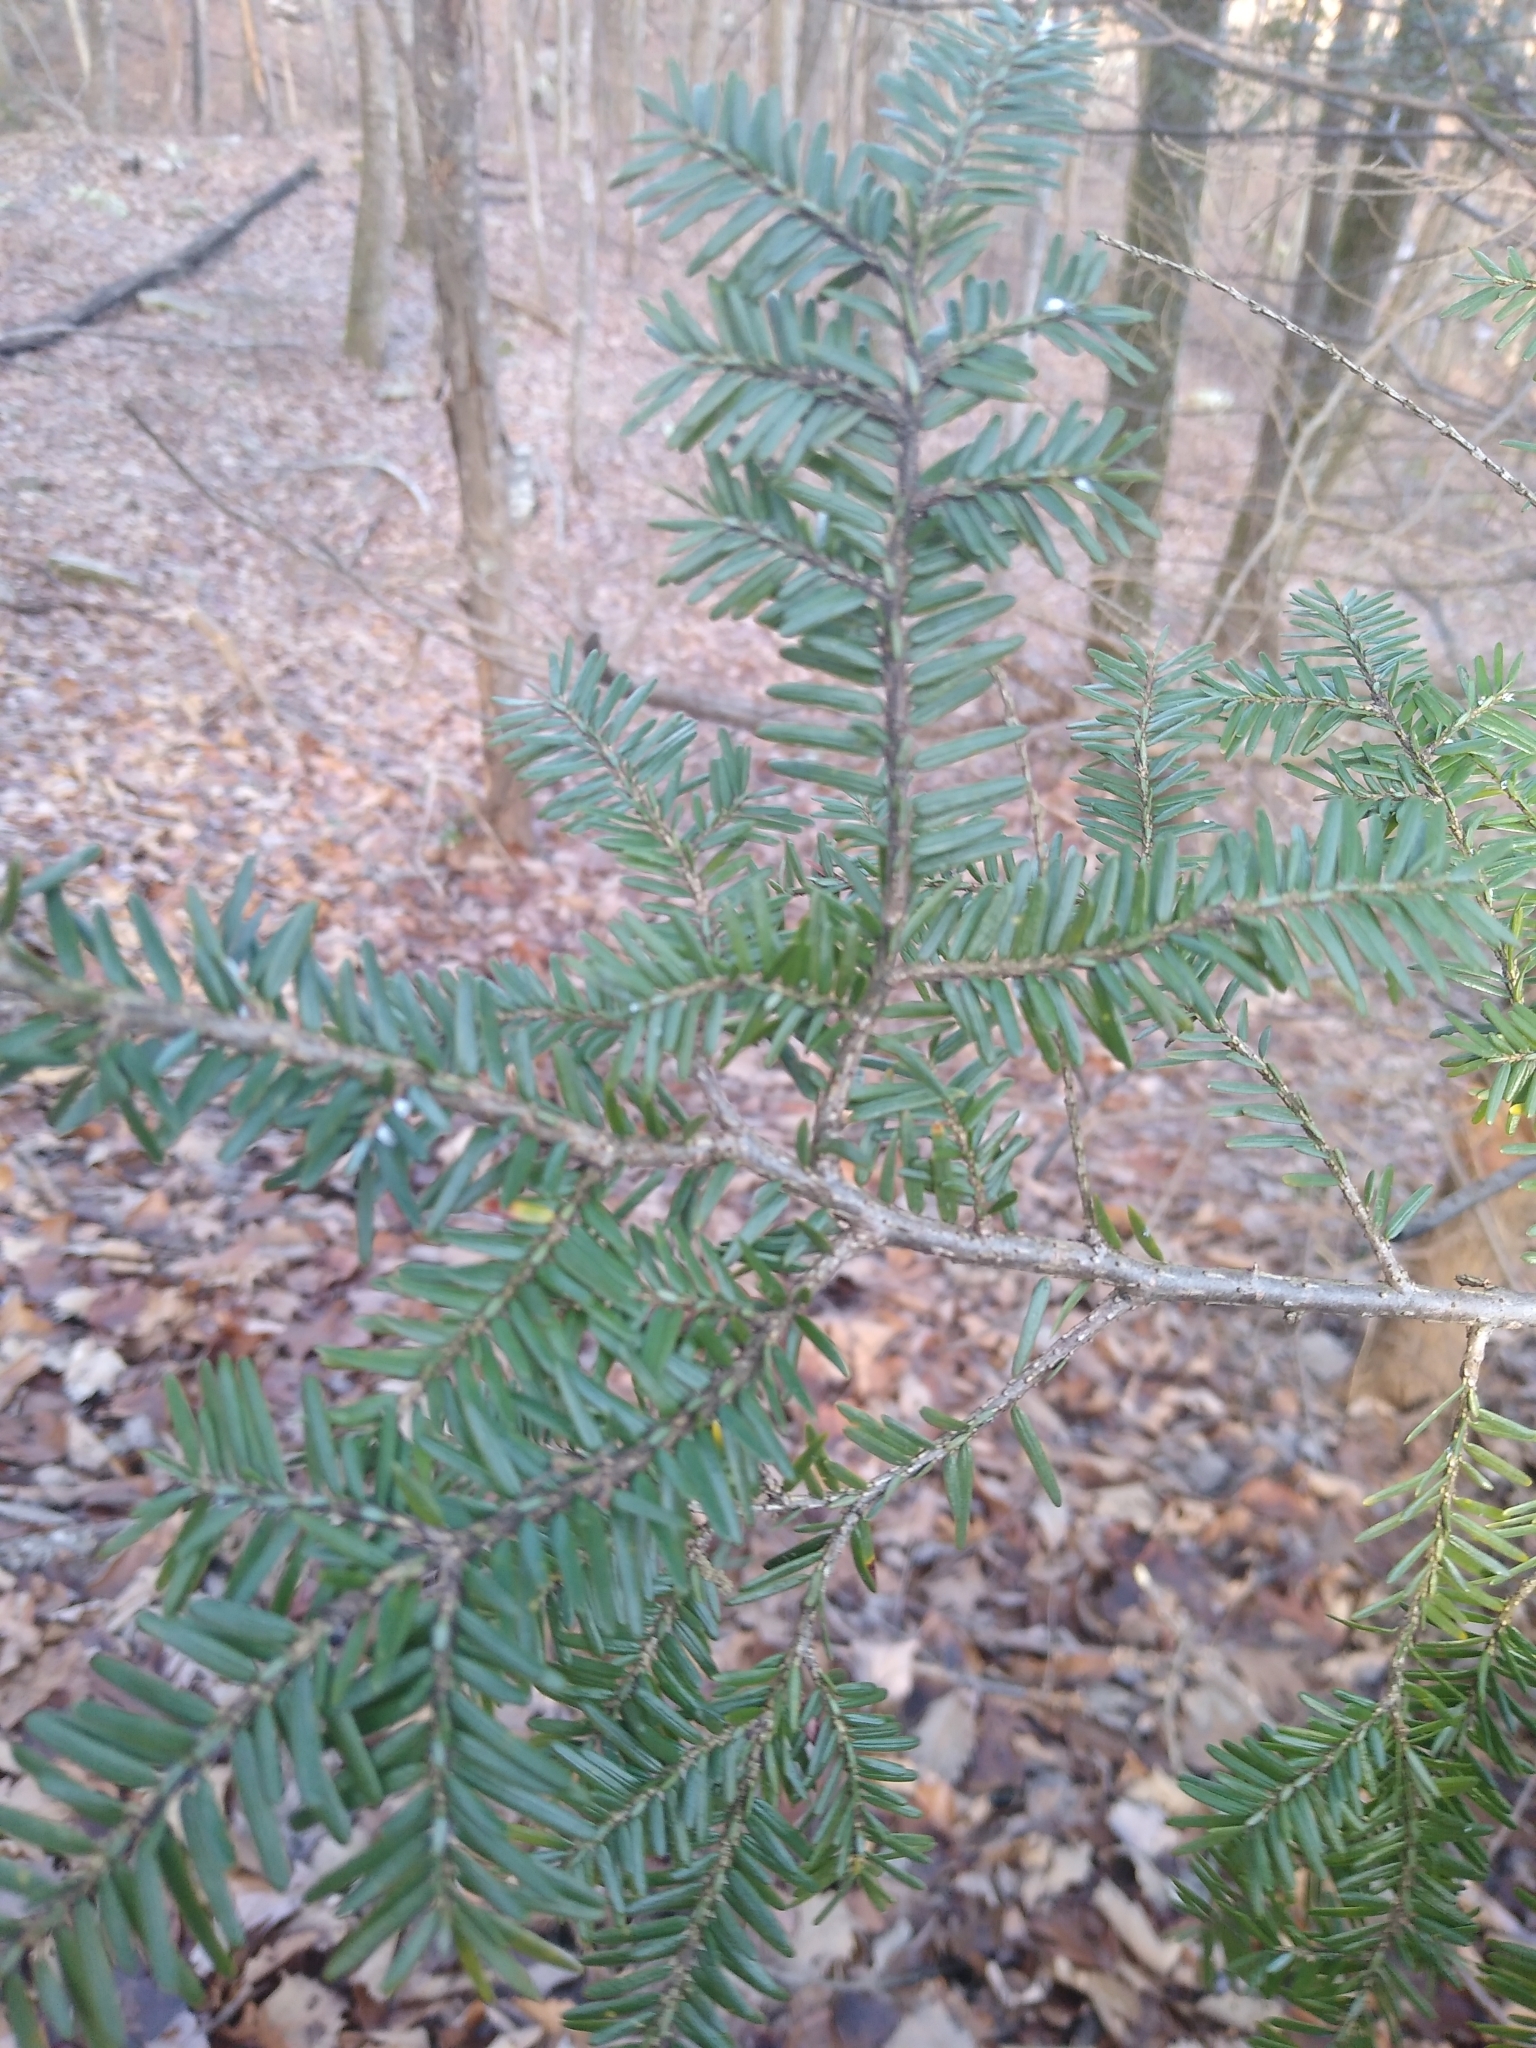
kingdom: Plantae
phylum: Tracheophyta
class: Pinopsida
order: Pinales
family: Pinaceae
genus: Tsuga
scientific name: Tsuga canadensis
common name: Eastern hemlock
